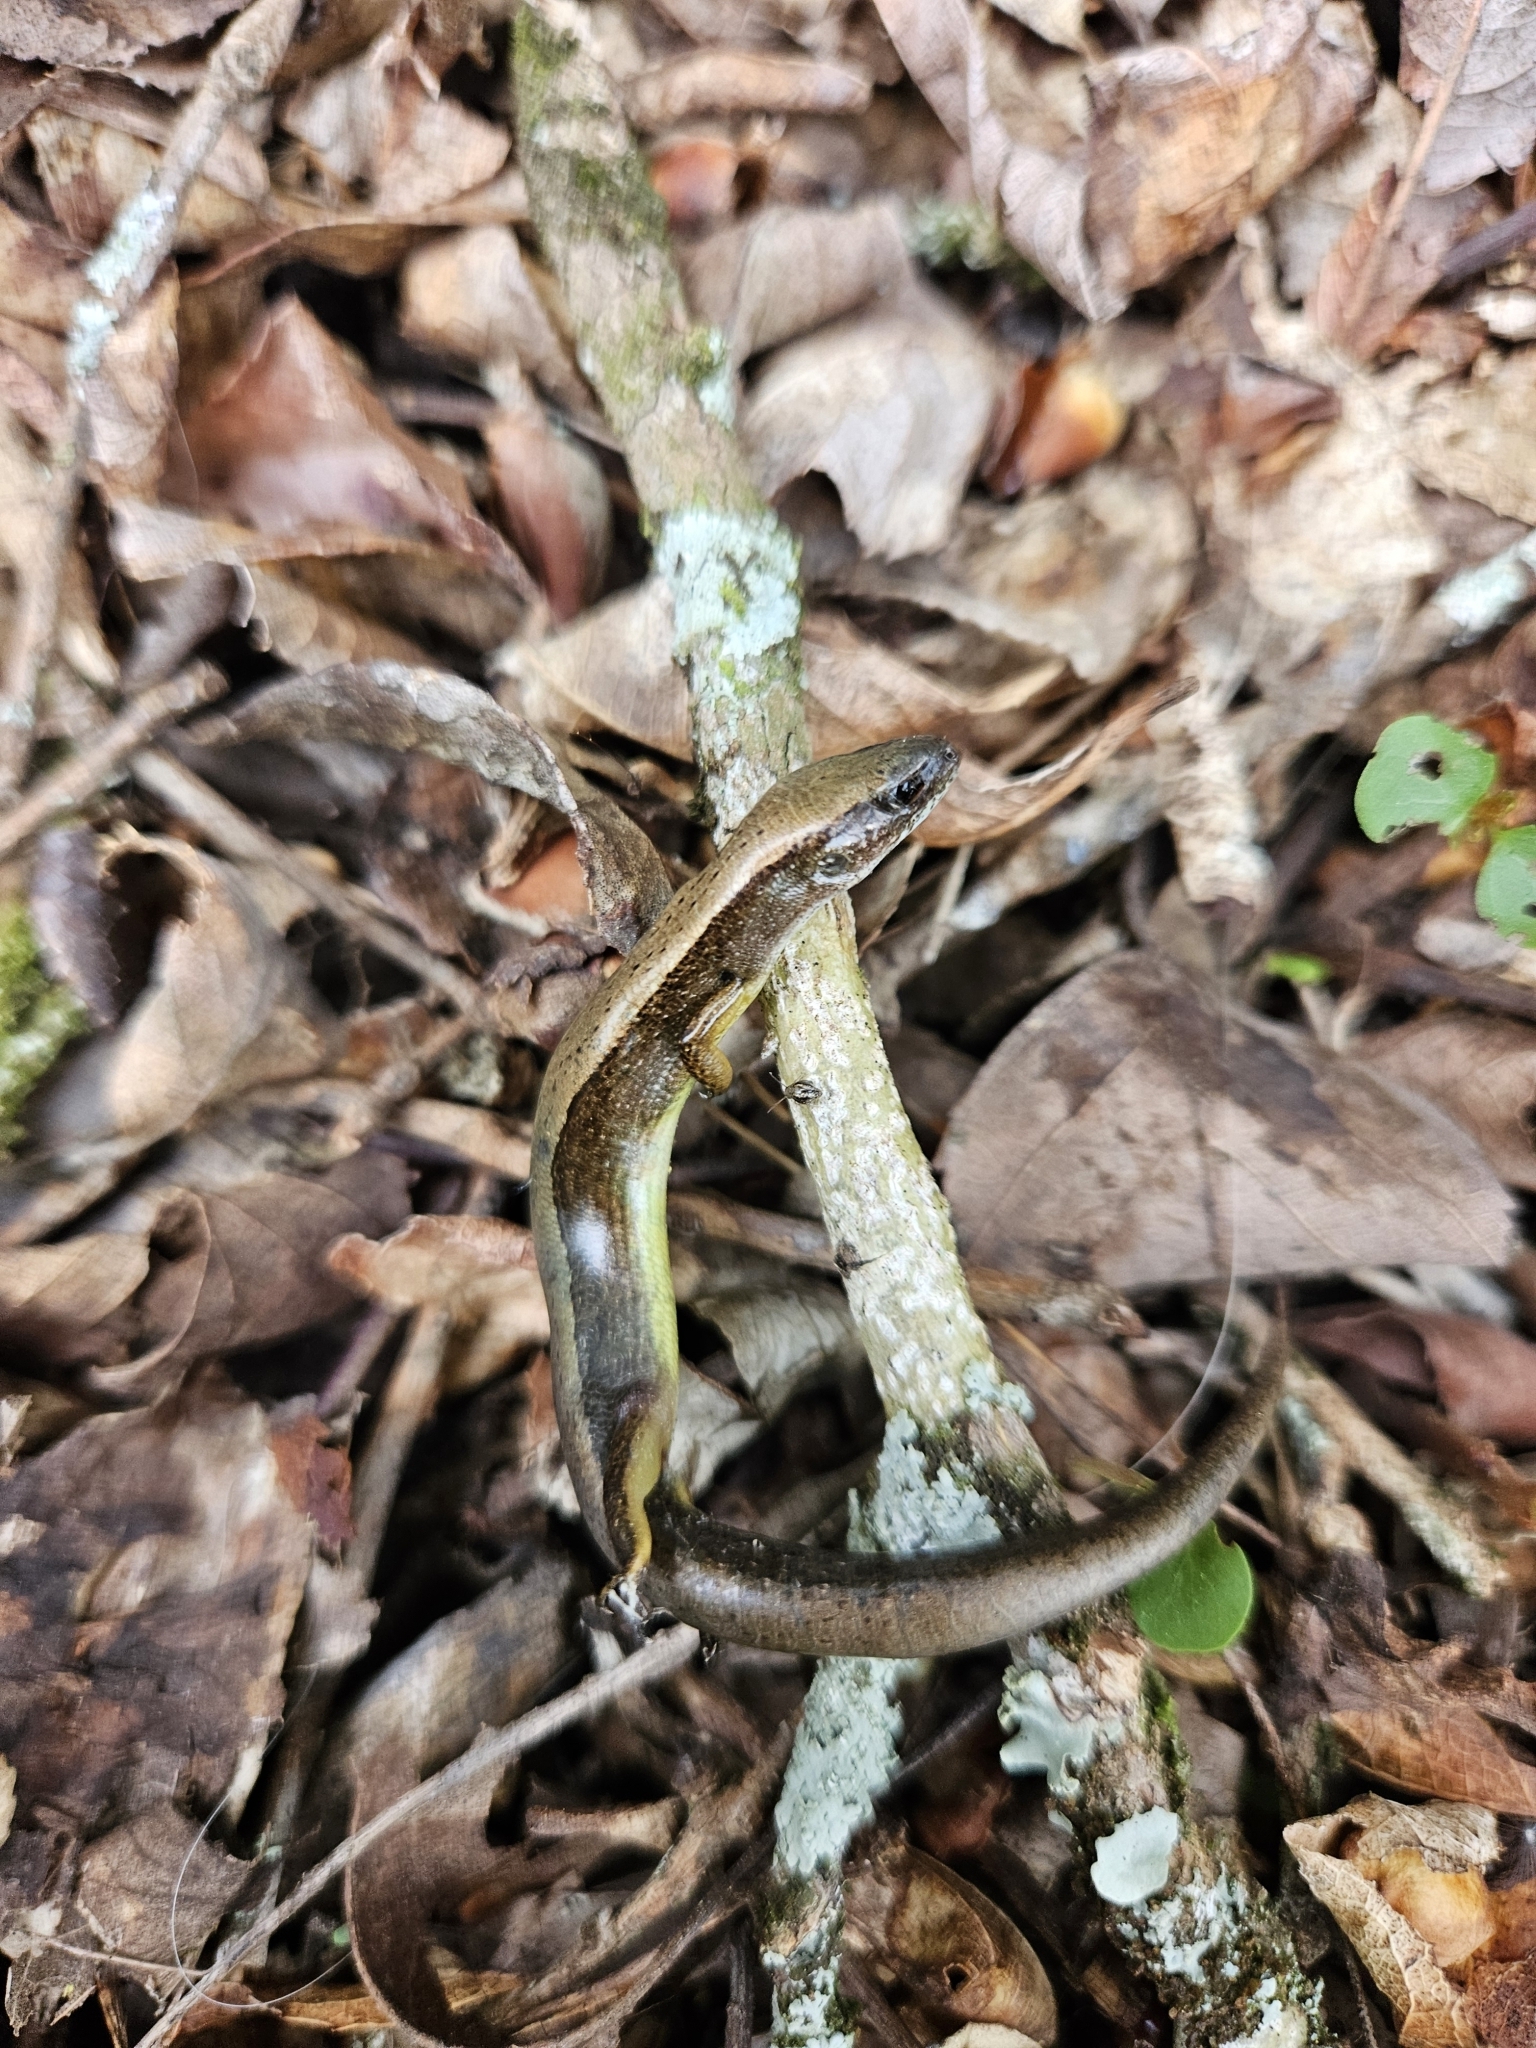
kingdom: Animalia
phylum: Chordata
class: Squamata
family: Scincidae
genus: Scincella
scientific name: Scincella lateralis
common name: Ground skink
